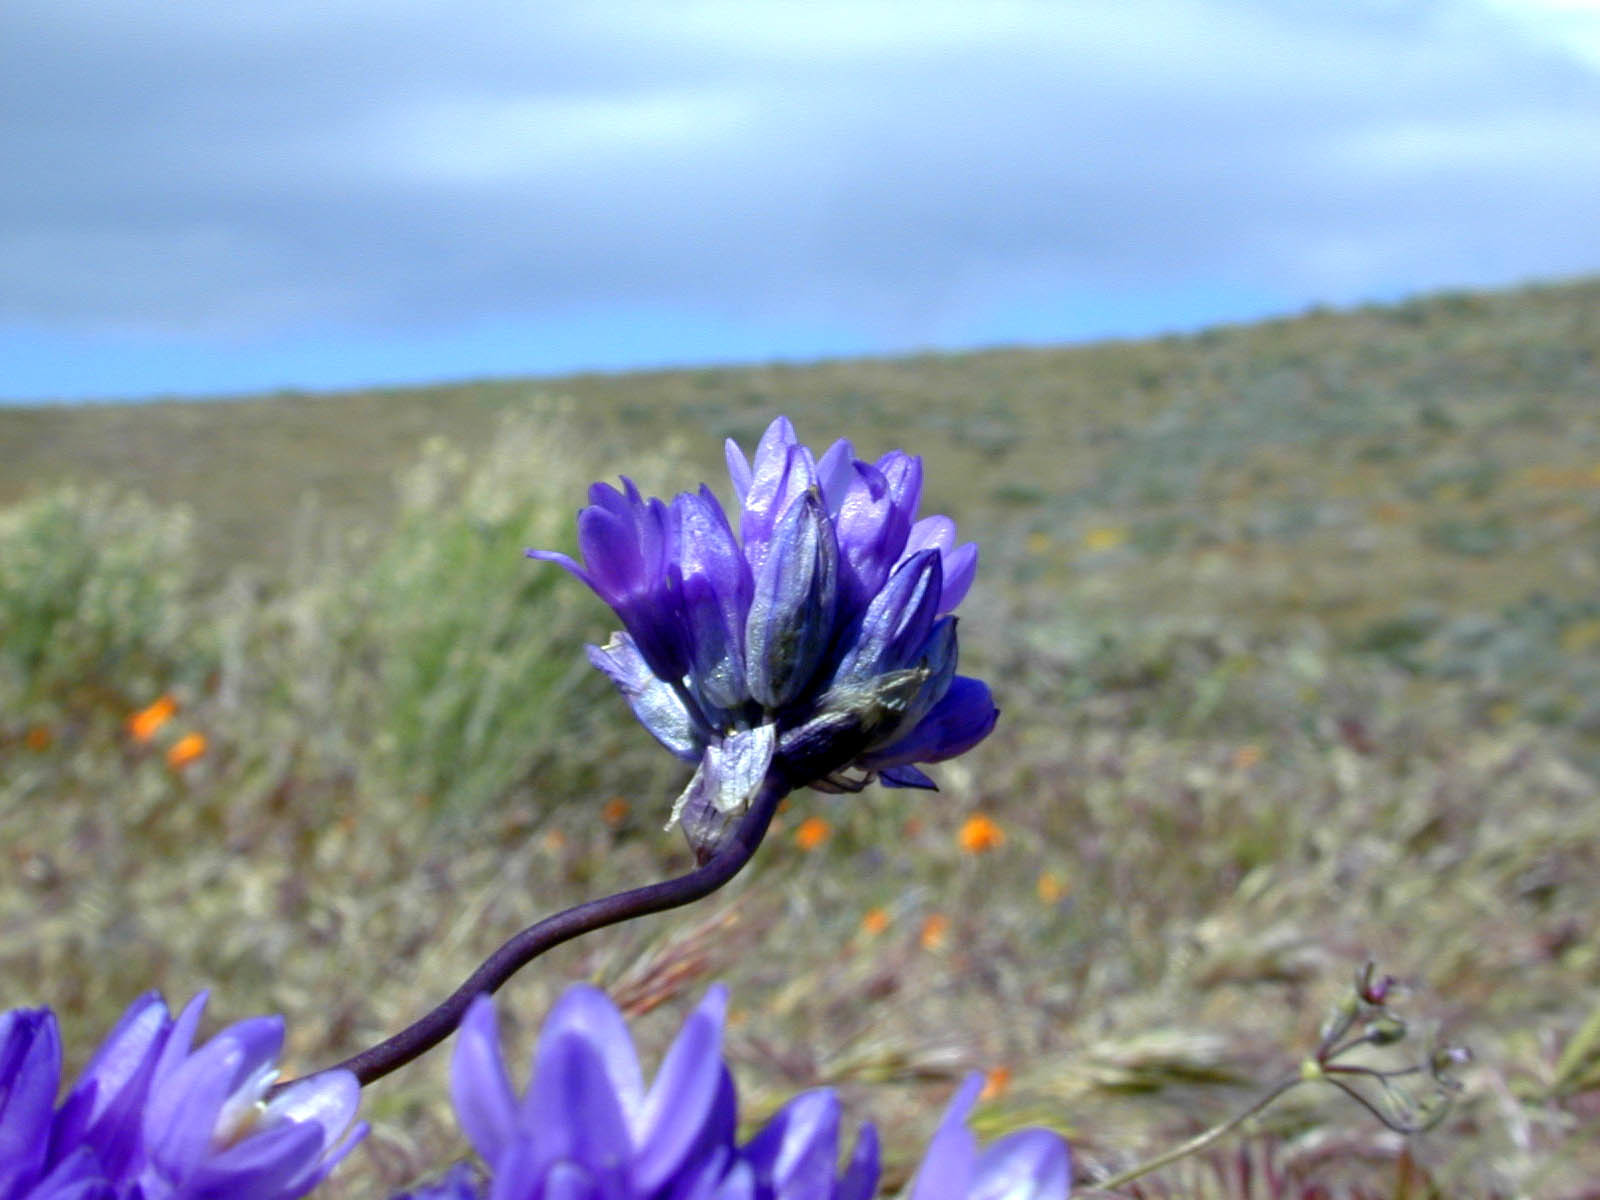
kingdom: Plantae
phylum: Tracheophyta
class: Liliopsida
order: Asparagales
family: Asparagaceae
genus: Dipterostemon
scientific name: Dipterostemon capitatus
